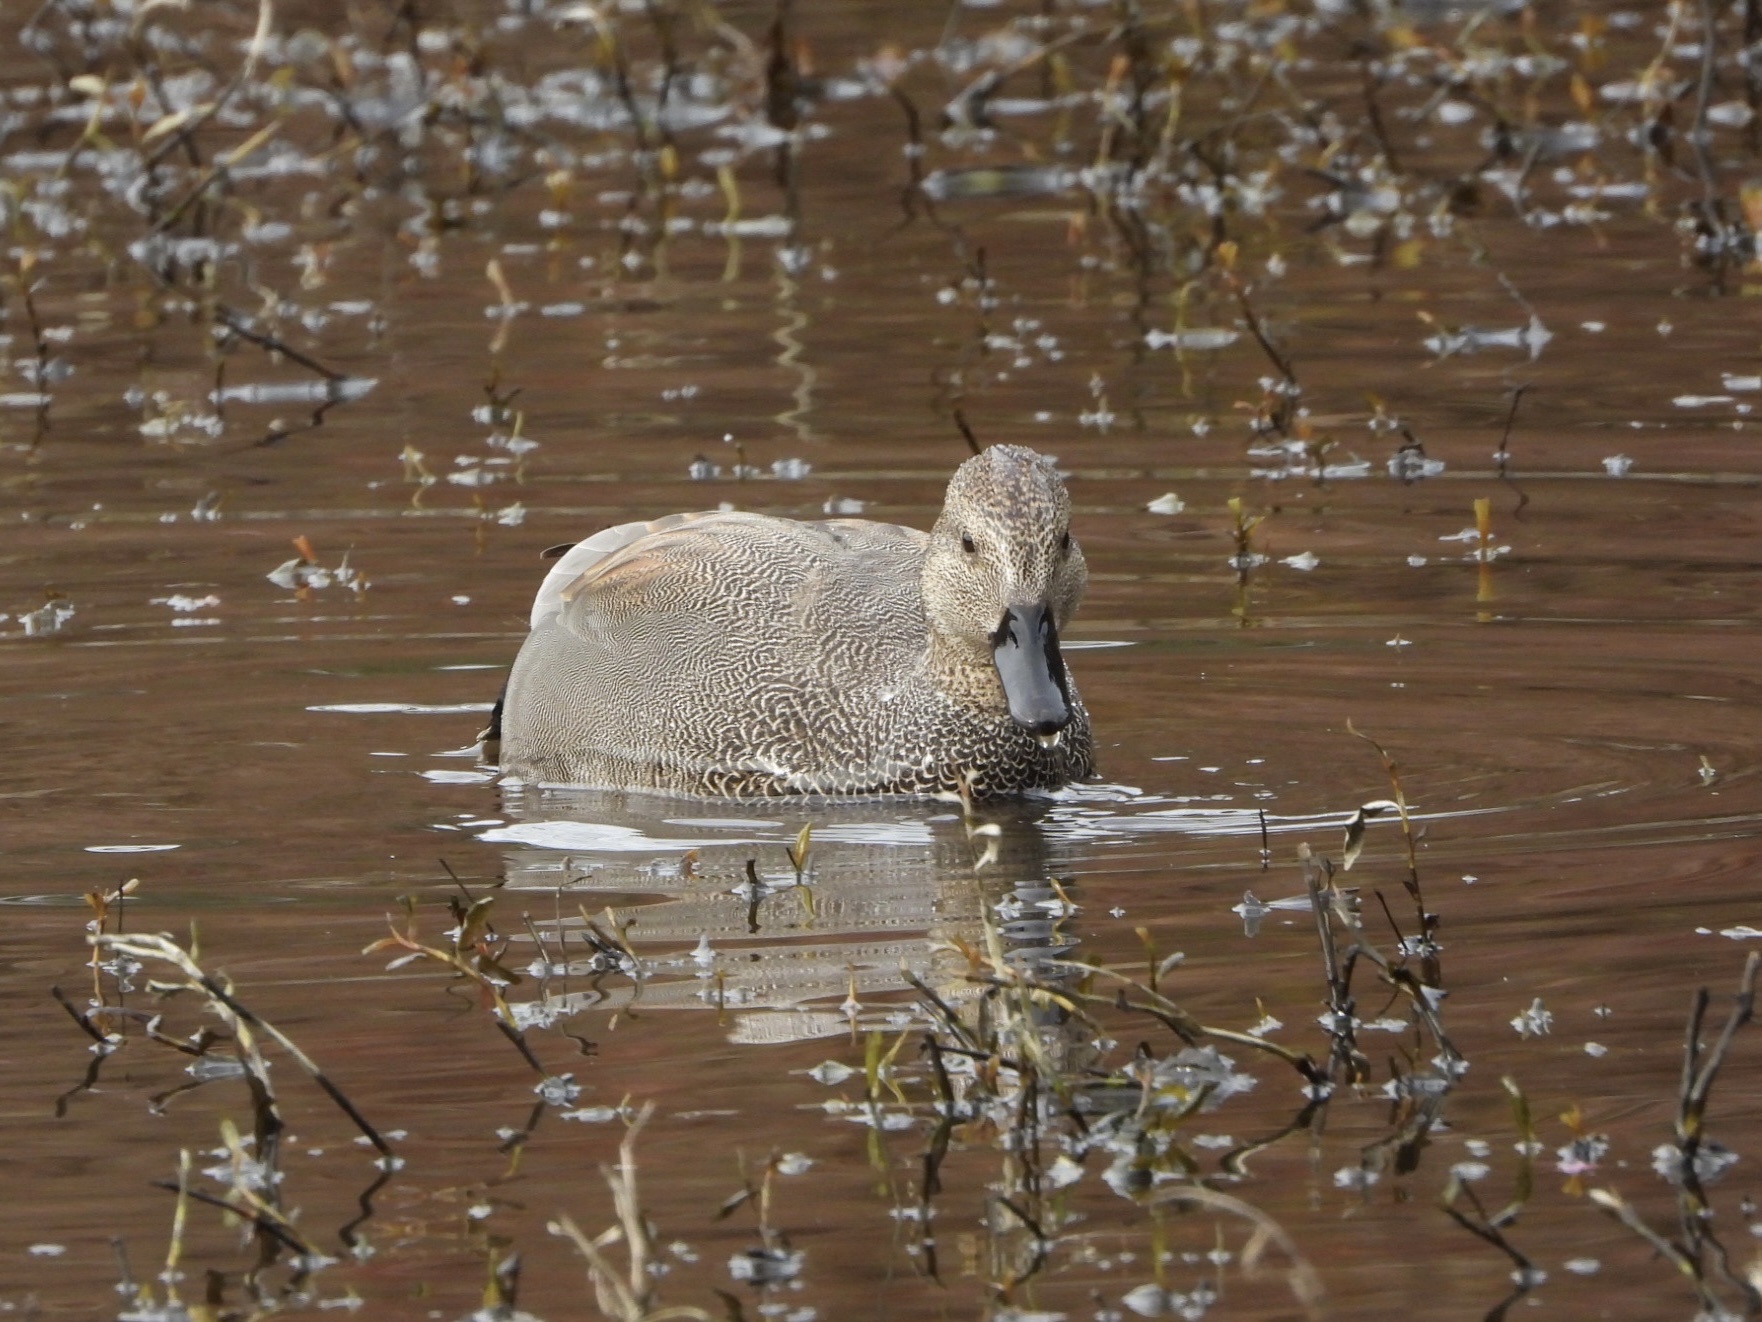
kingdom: Animalia
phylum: Chordata
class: Aves
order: Anseriformes
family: Anatidae
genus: Mareca
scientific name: Mareca strepera
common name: Gadwall
